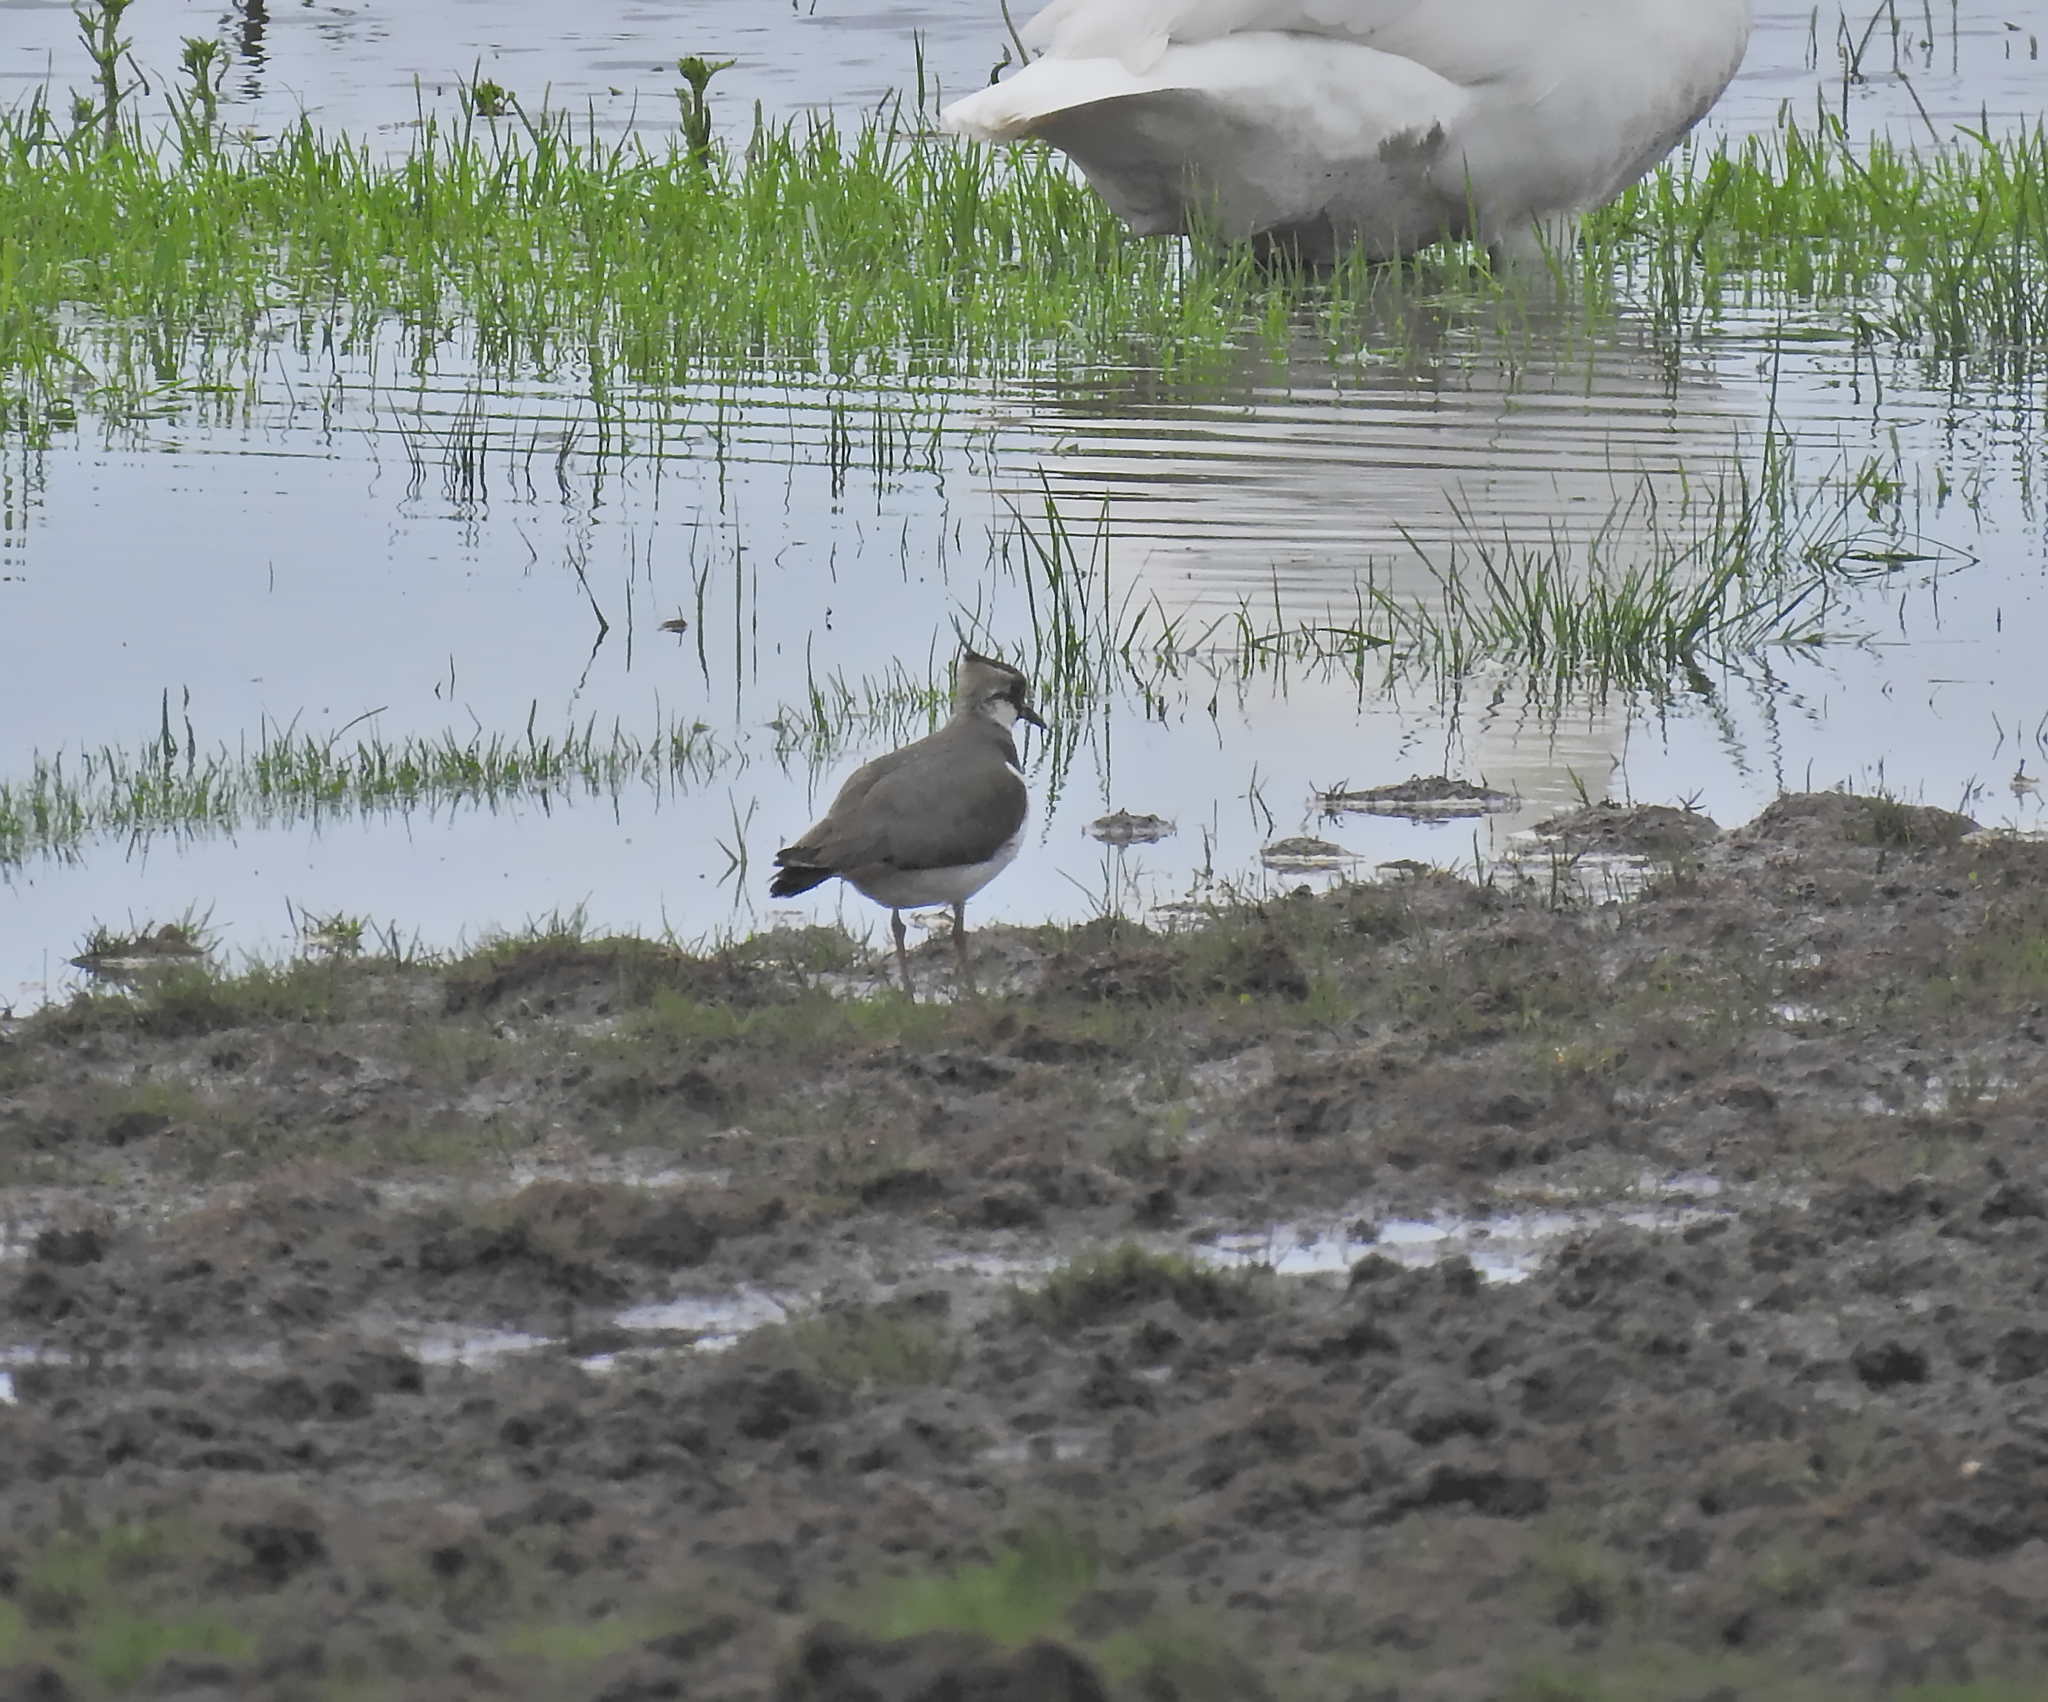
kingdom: Animalia
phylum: Chordata
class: Aves
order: Charadriiformes
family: Charadriidae
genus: Vanellus
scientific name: Vanellus vanellus
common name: Northern lapwing
